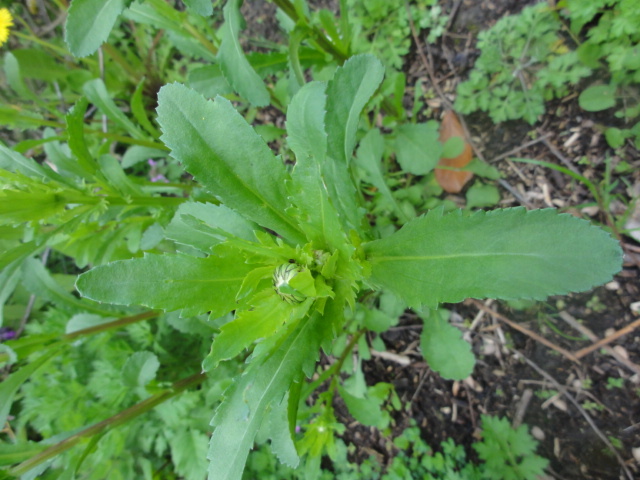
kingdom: Plantae
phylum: Tracheophyta
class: Magnoliopsida
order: Asterales
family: Asteraceae
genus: Leucanthemum
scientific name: Leucanthemum vulgare
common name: Oxeye daisy
